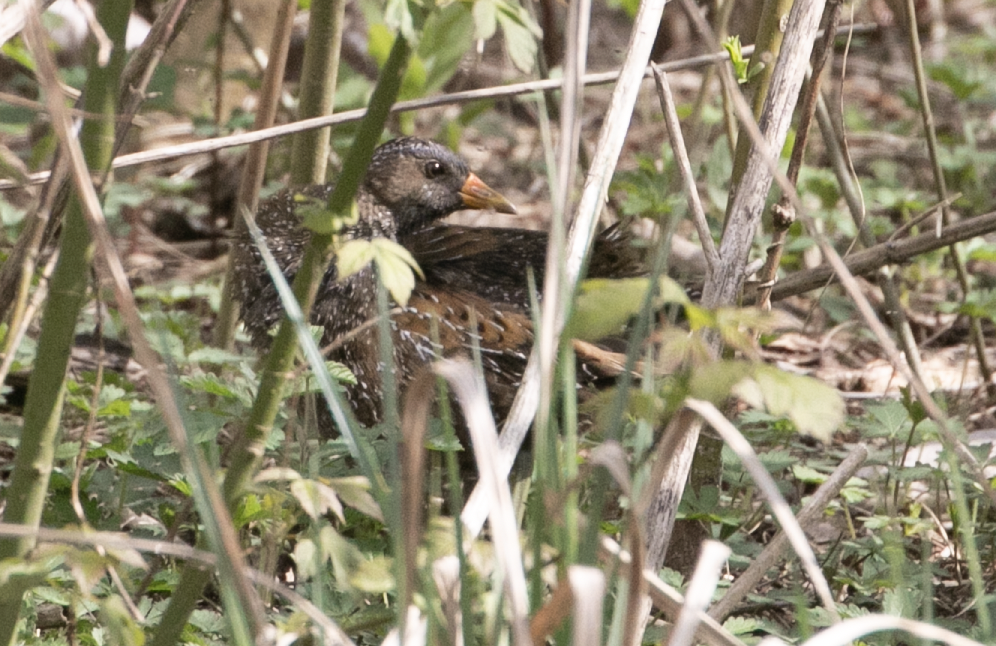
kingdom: Animalia
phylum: Chordata
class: Aves
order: Gruiformes
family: Rallidae
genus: Porzana
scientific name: Porzana porzana
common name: Spotted crake
